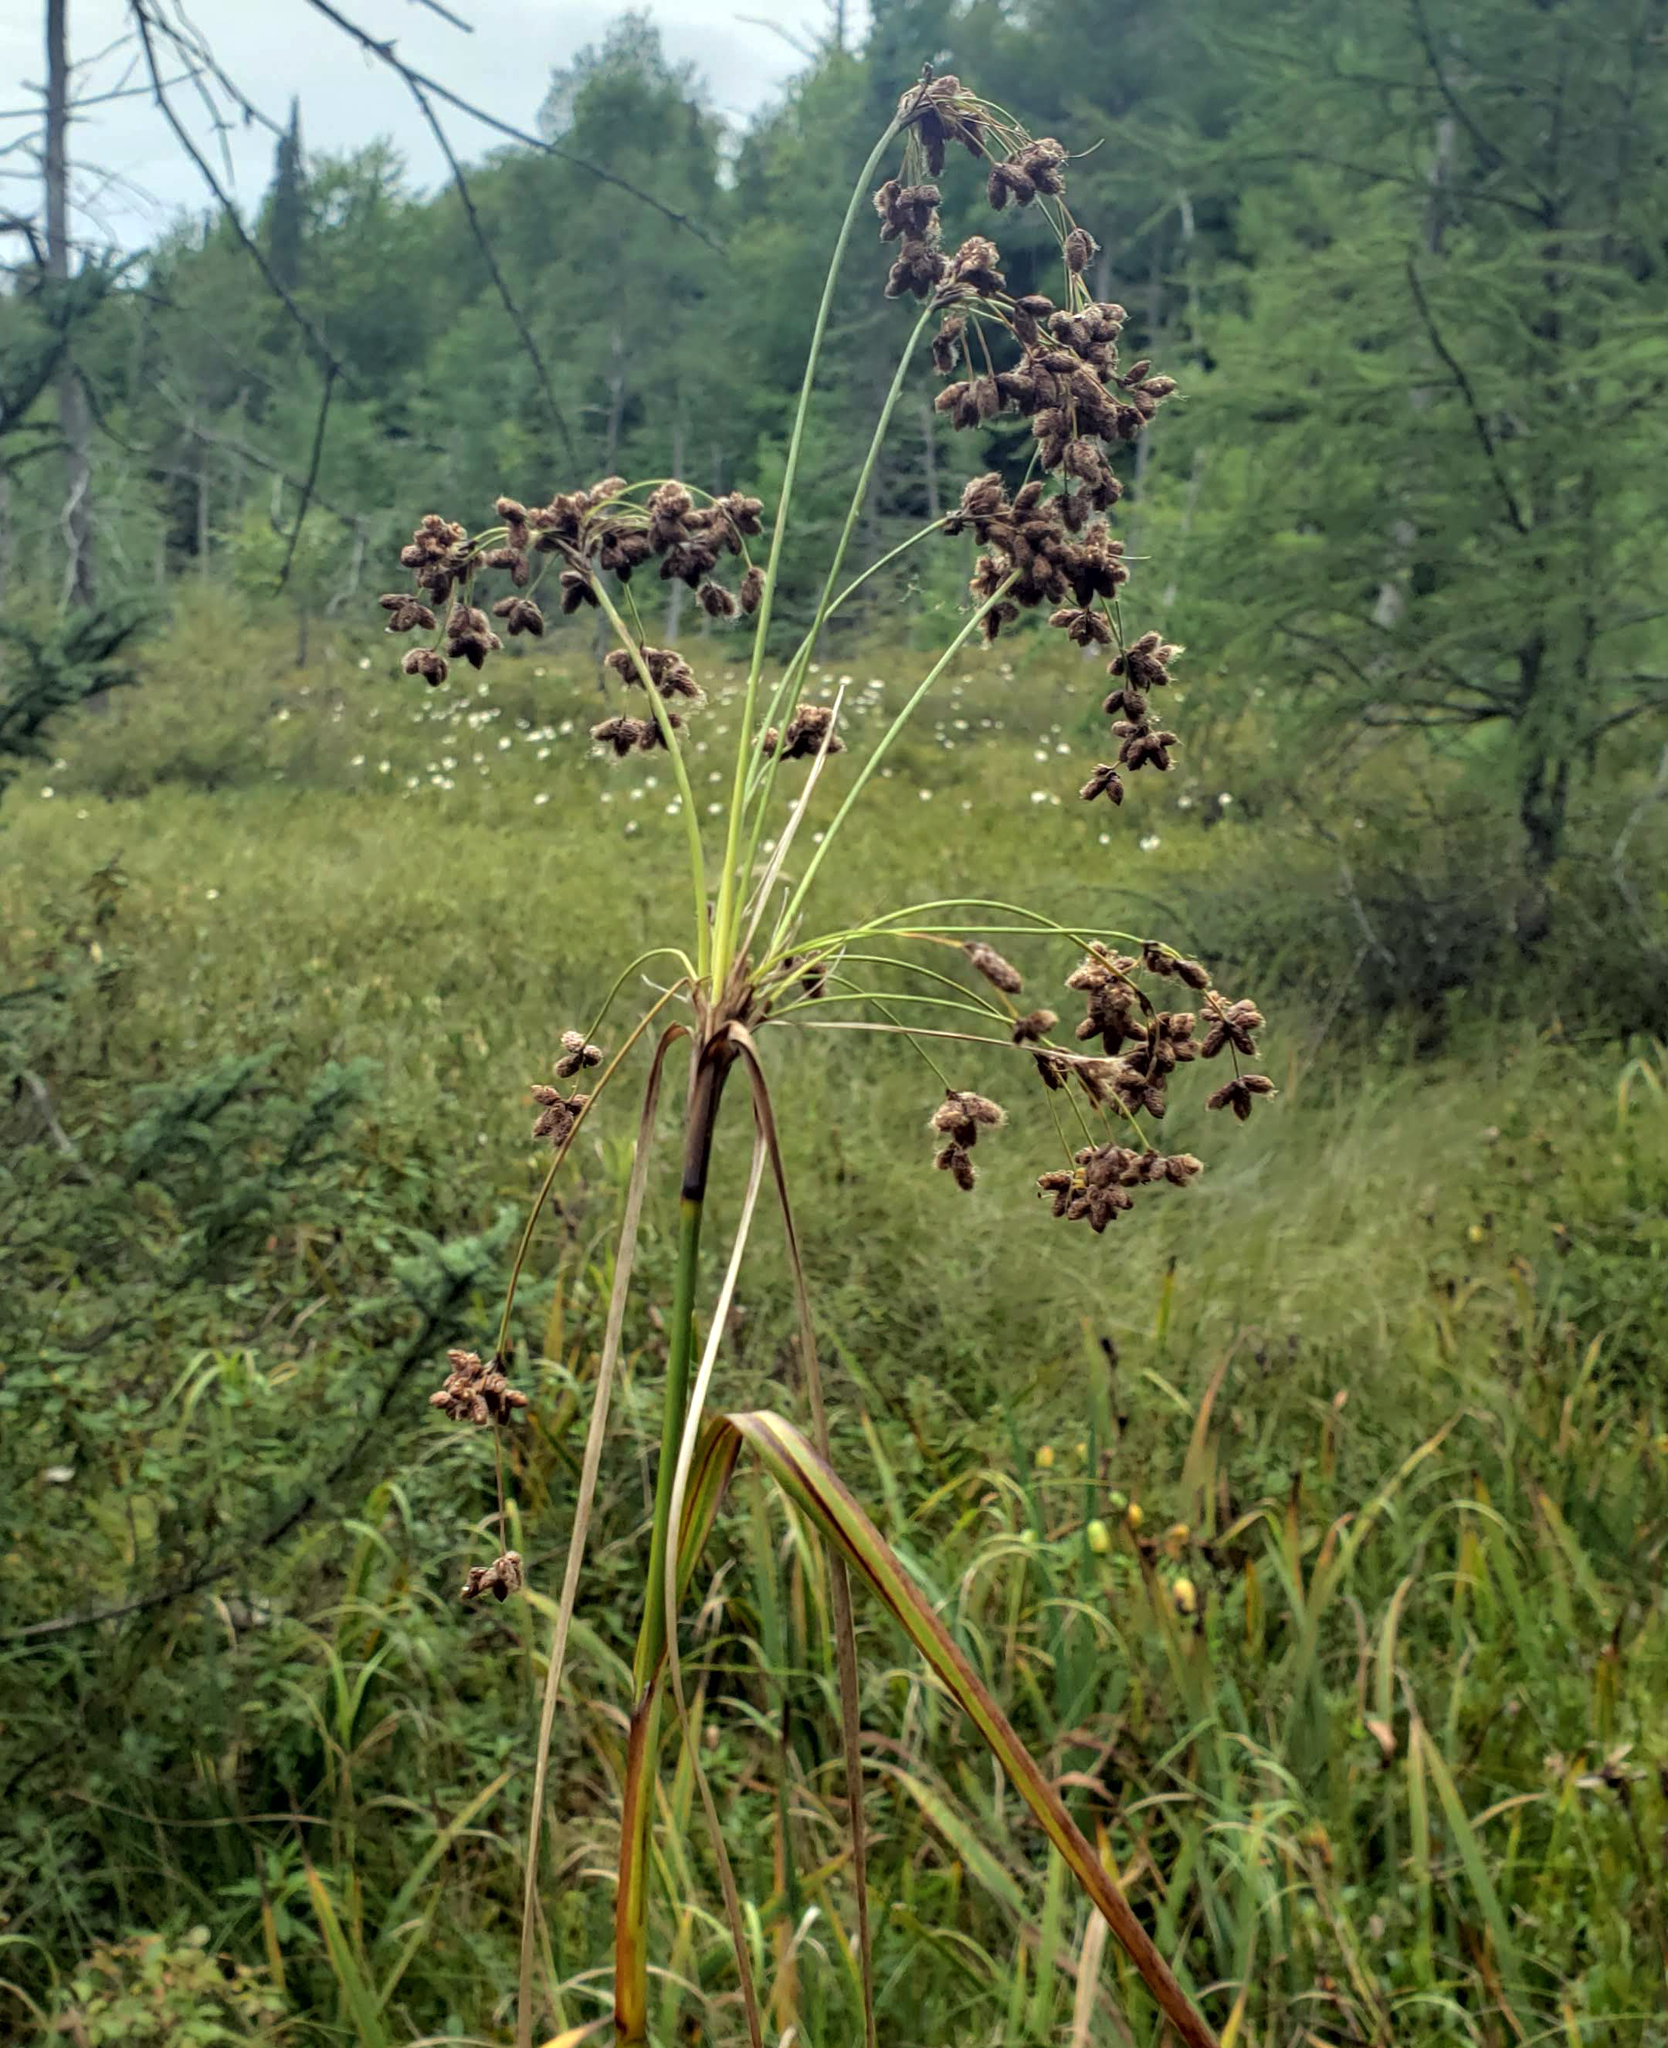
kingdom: Plantae
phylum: Tracheophyta
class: Liliopsida
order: Poales
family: Cyperaceae
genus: Scirpus
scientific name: Scirpus cyperinus
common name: Black-sheathed bulrush
